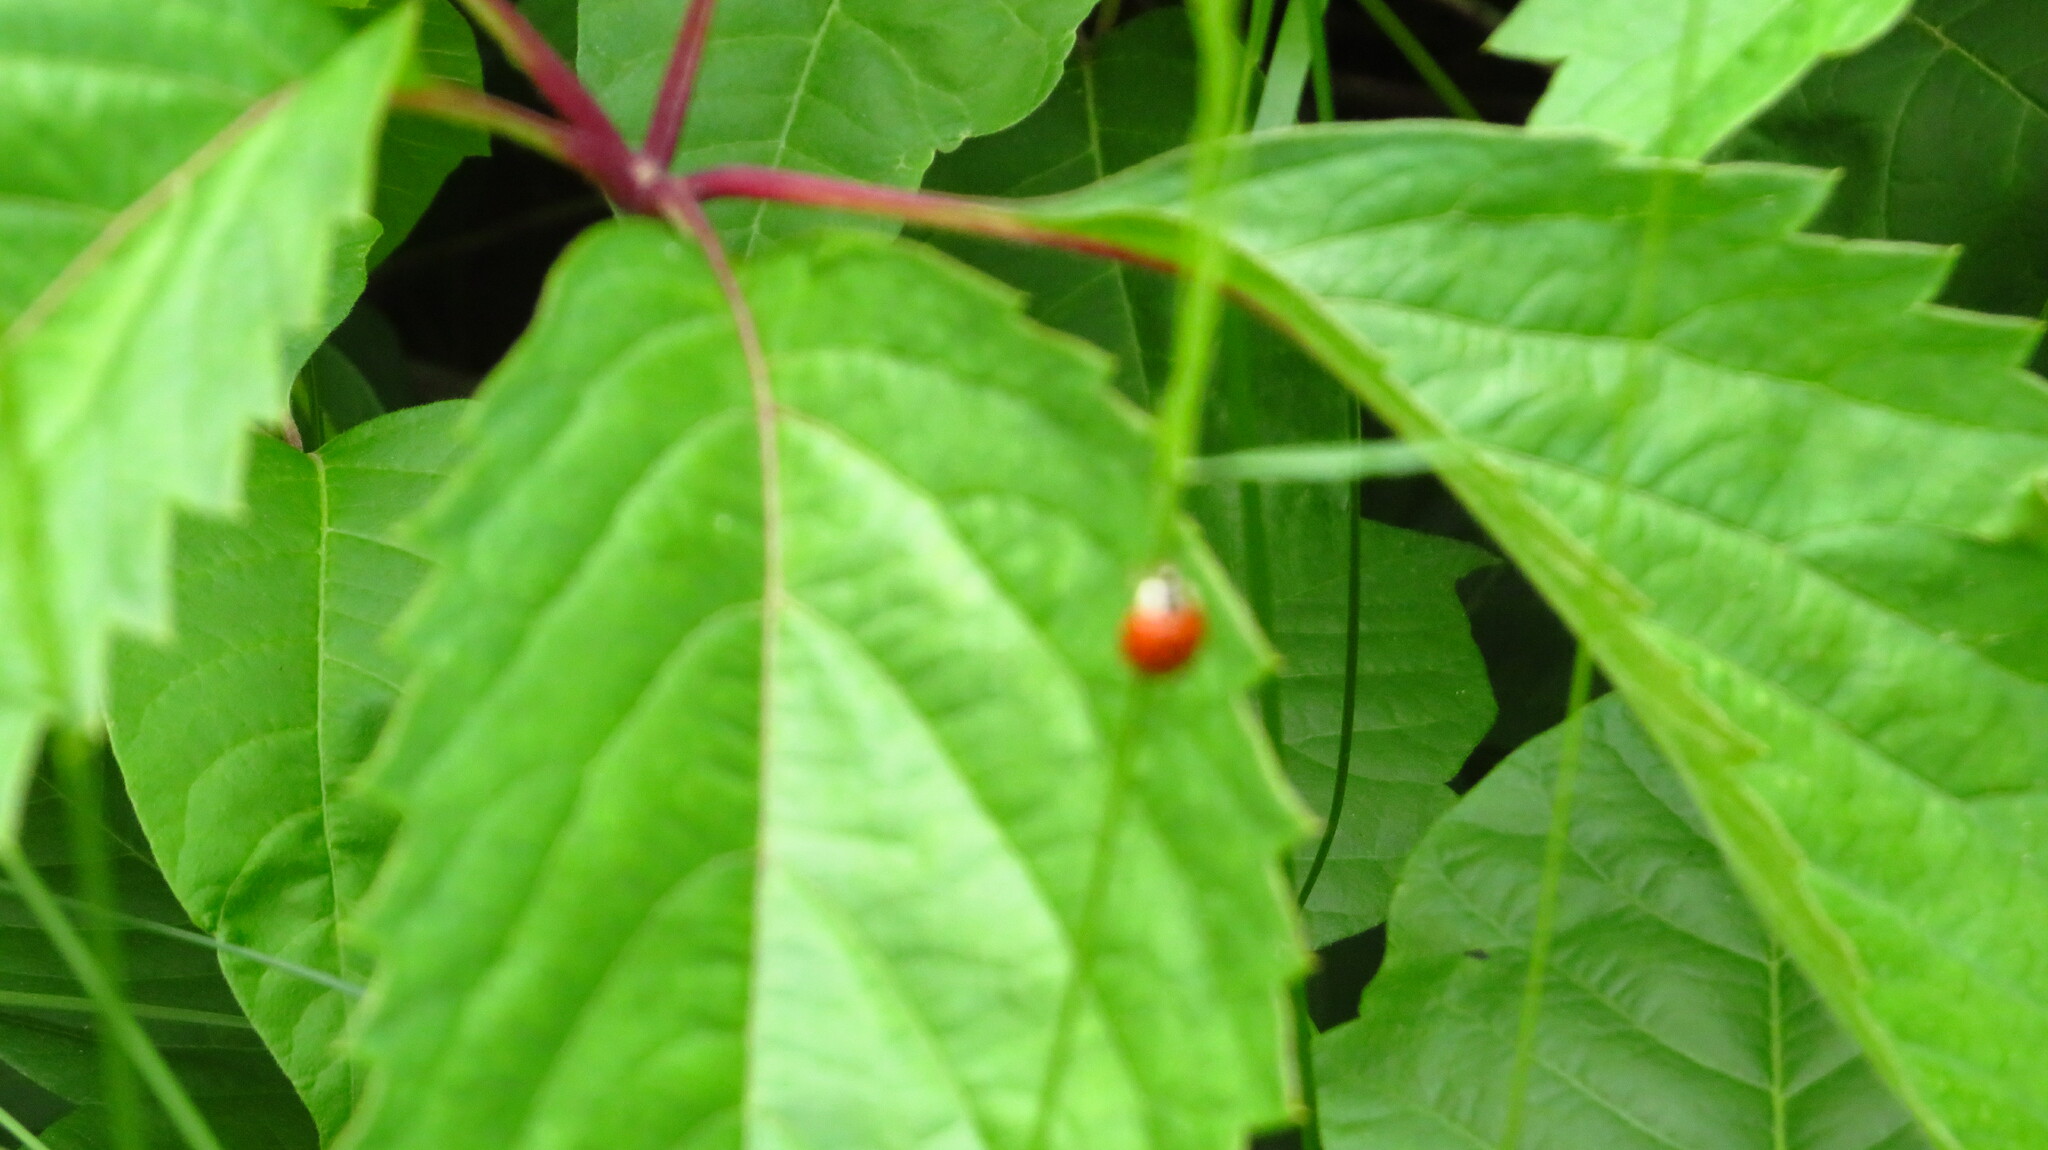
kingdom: Animalia
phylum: Arthropoda
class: Insecta
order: Coleoptera
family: Coccinellidae
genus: Harmonia
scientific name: Harmonia axyridis
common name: Harlequin ladybird
